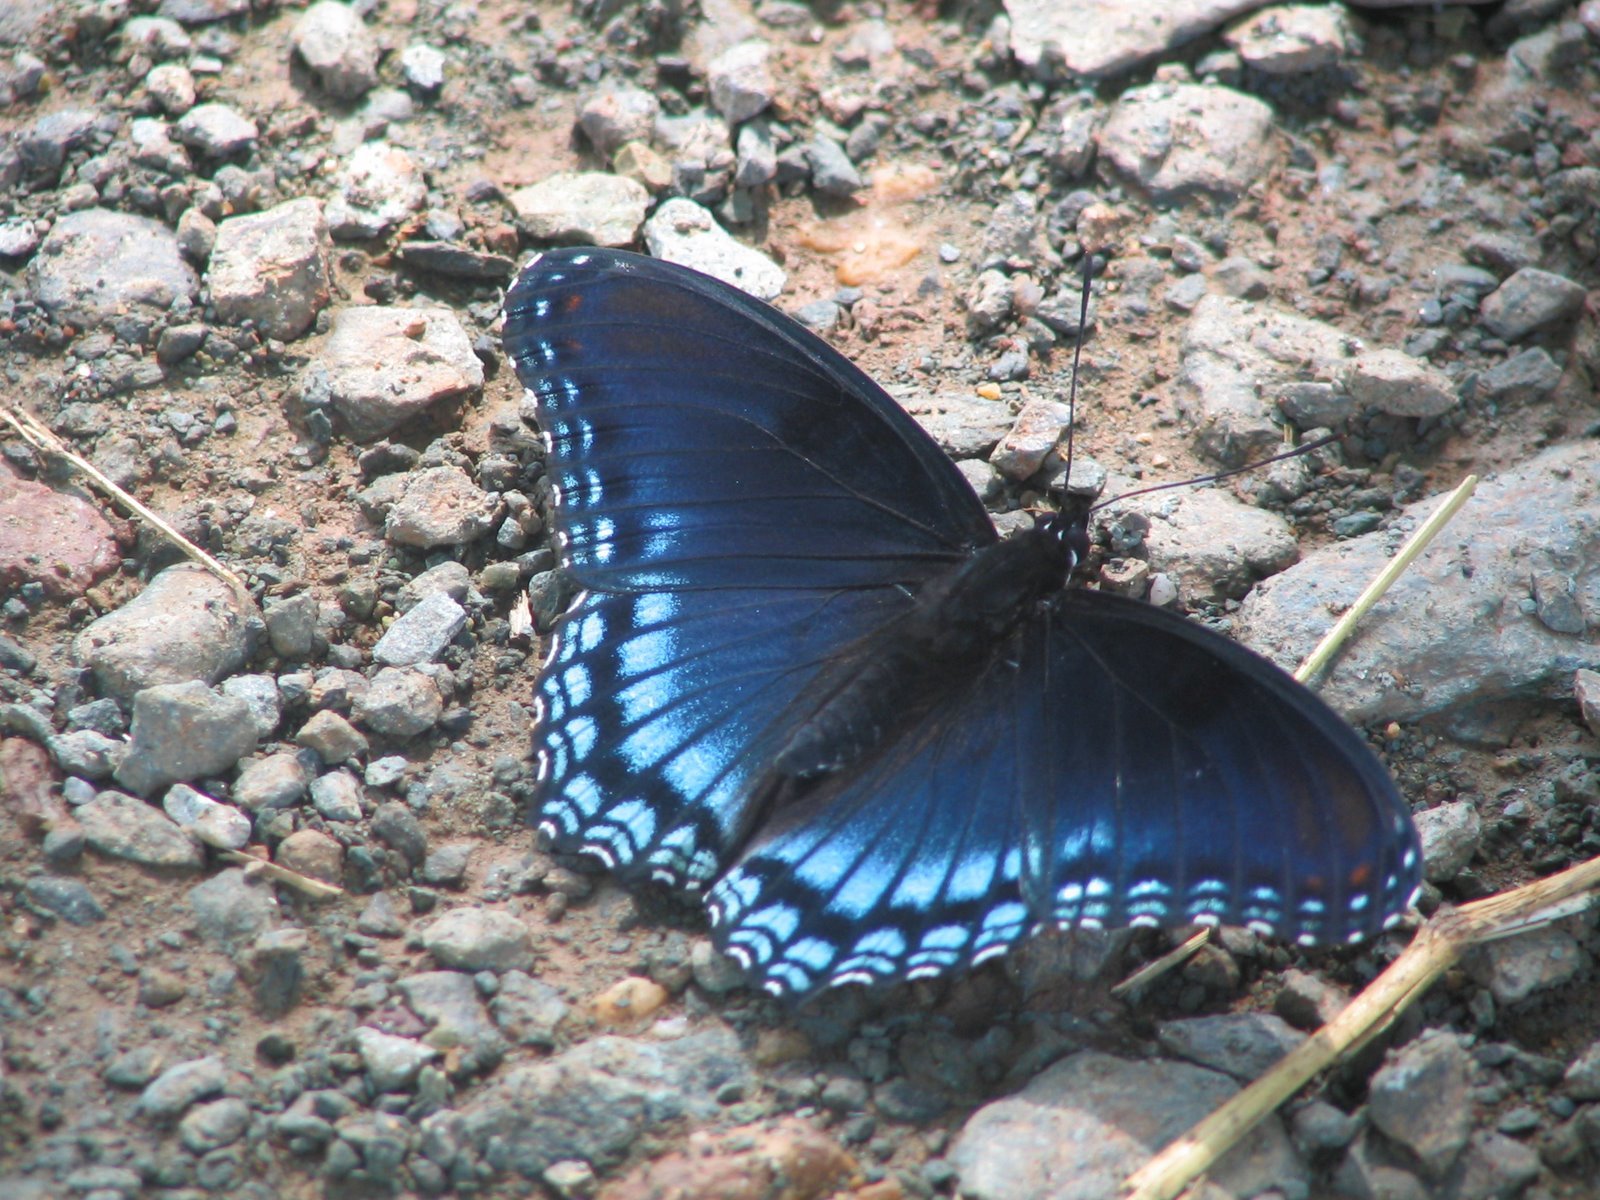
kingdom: Animalia
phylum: Arthropoda
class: Insecta
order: Lepidoptera
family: Nymphalidae
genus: Limenitis
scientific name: Limenitis astyanax
